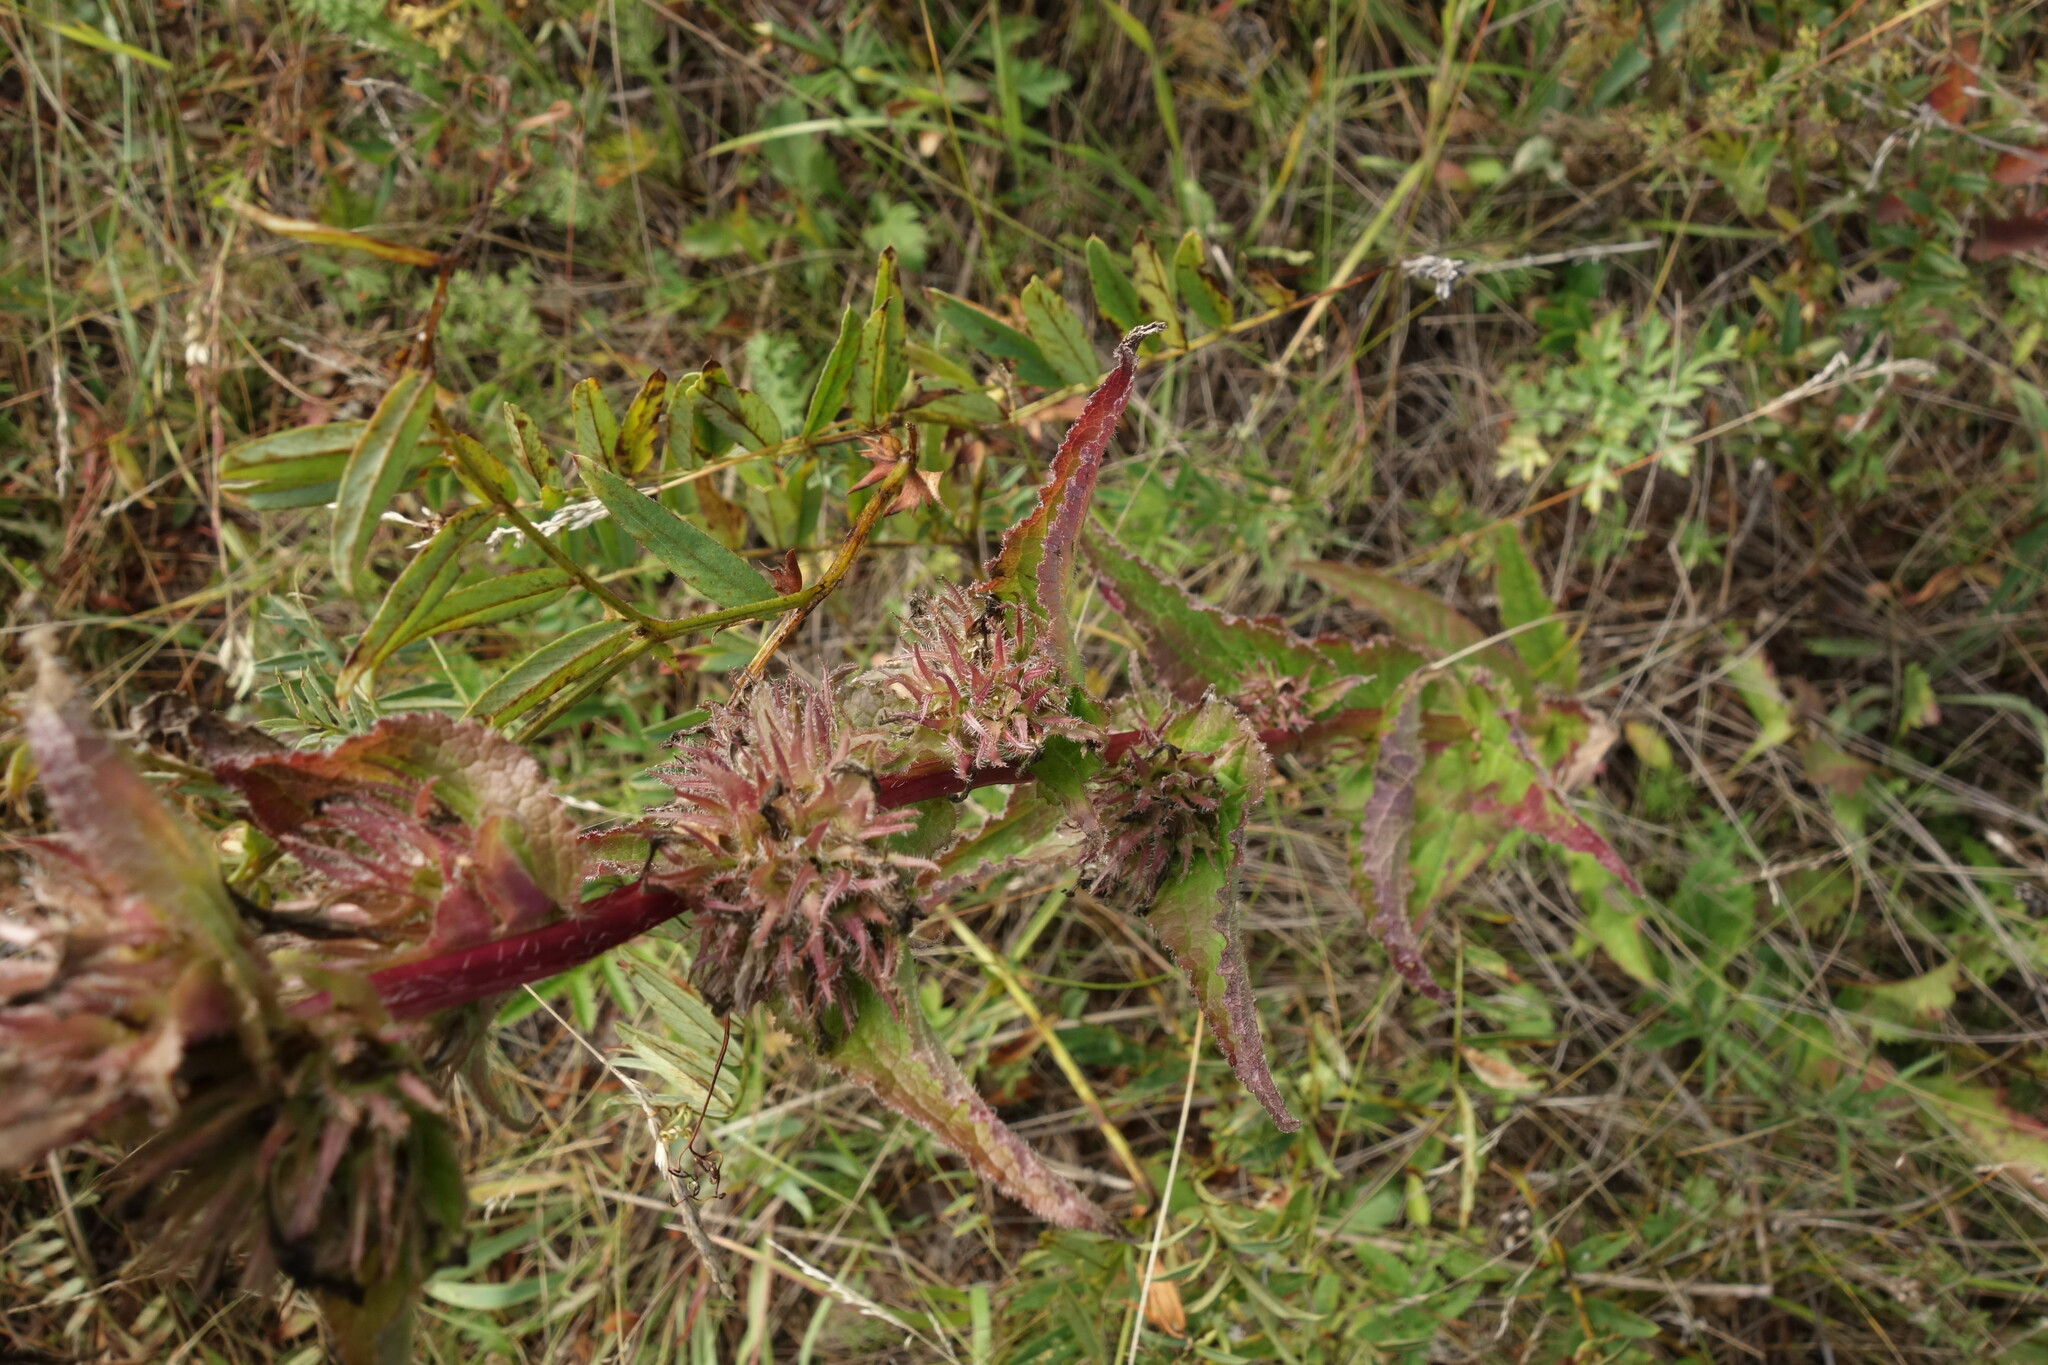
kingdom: Plantae
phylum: Tracheophyta
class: Magnoliopsida
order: Asterales
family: Campanulaceae
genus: Campanula
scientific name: Campanula glomerata
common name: Clustered bellflower
